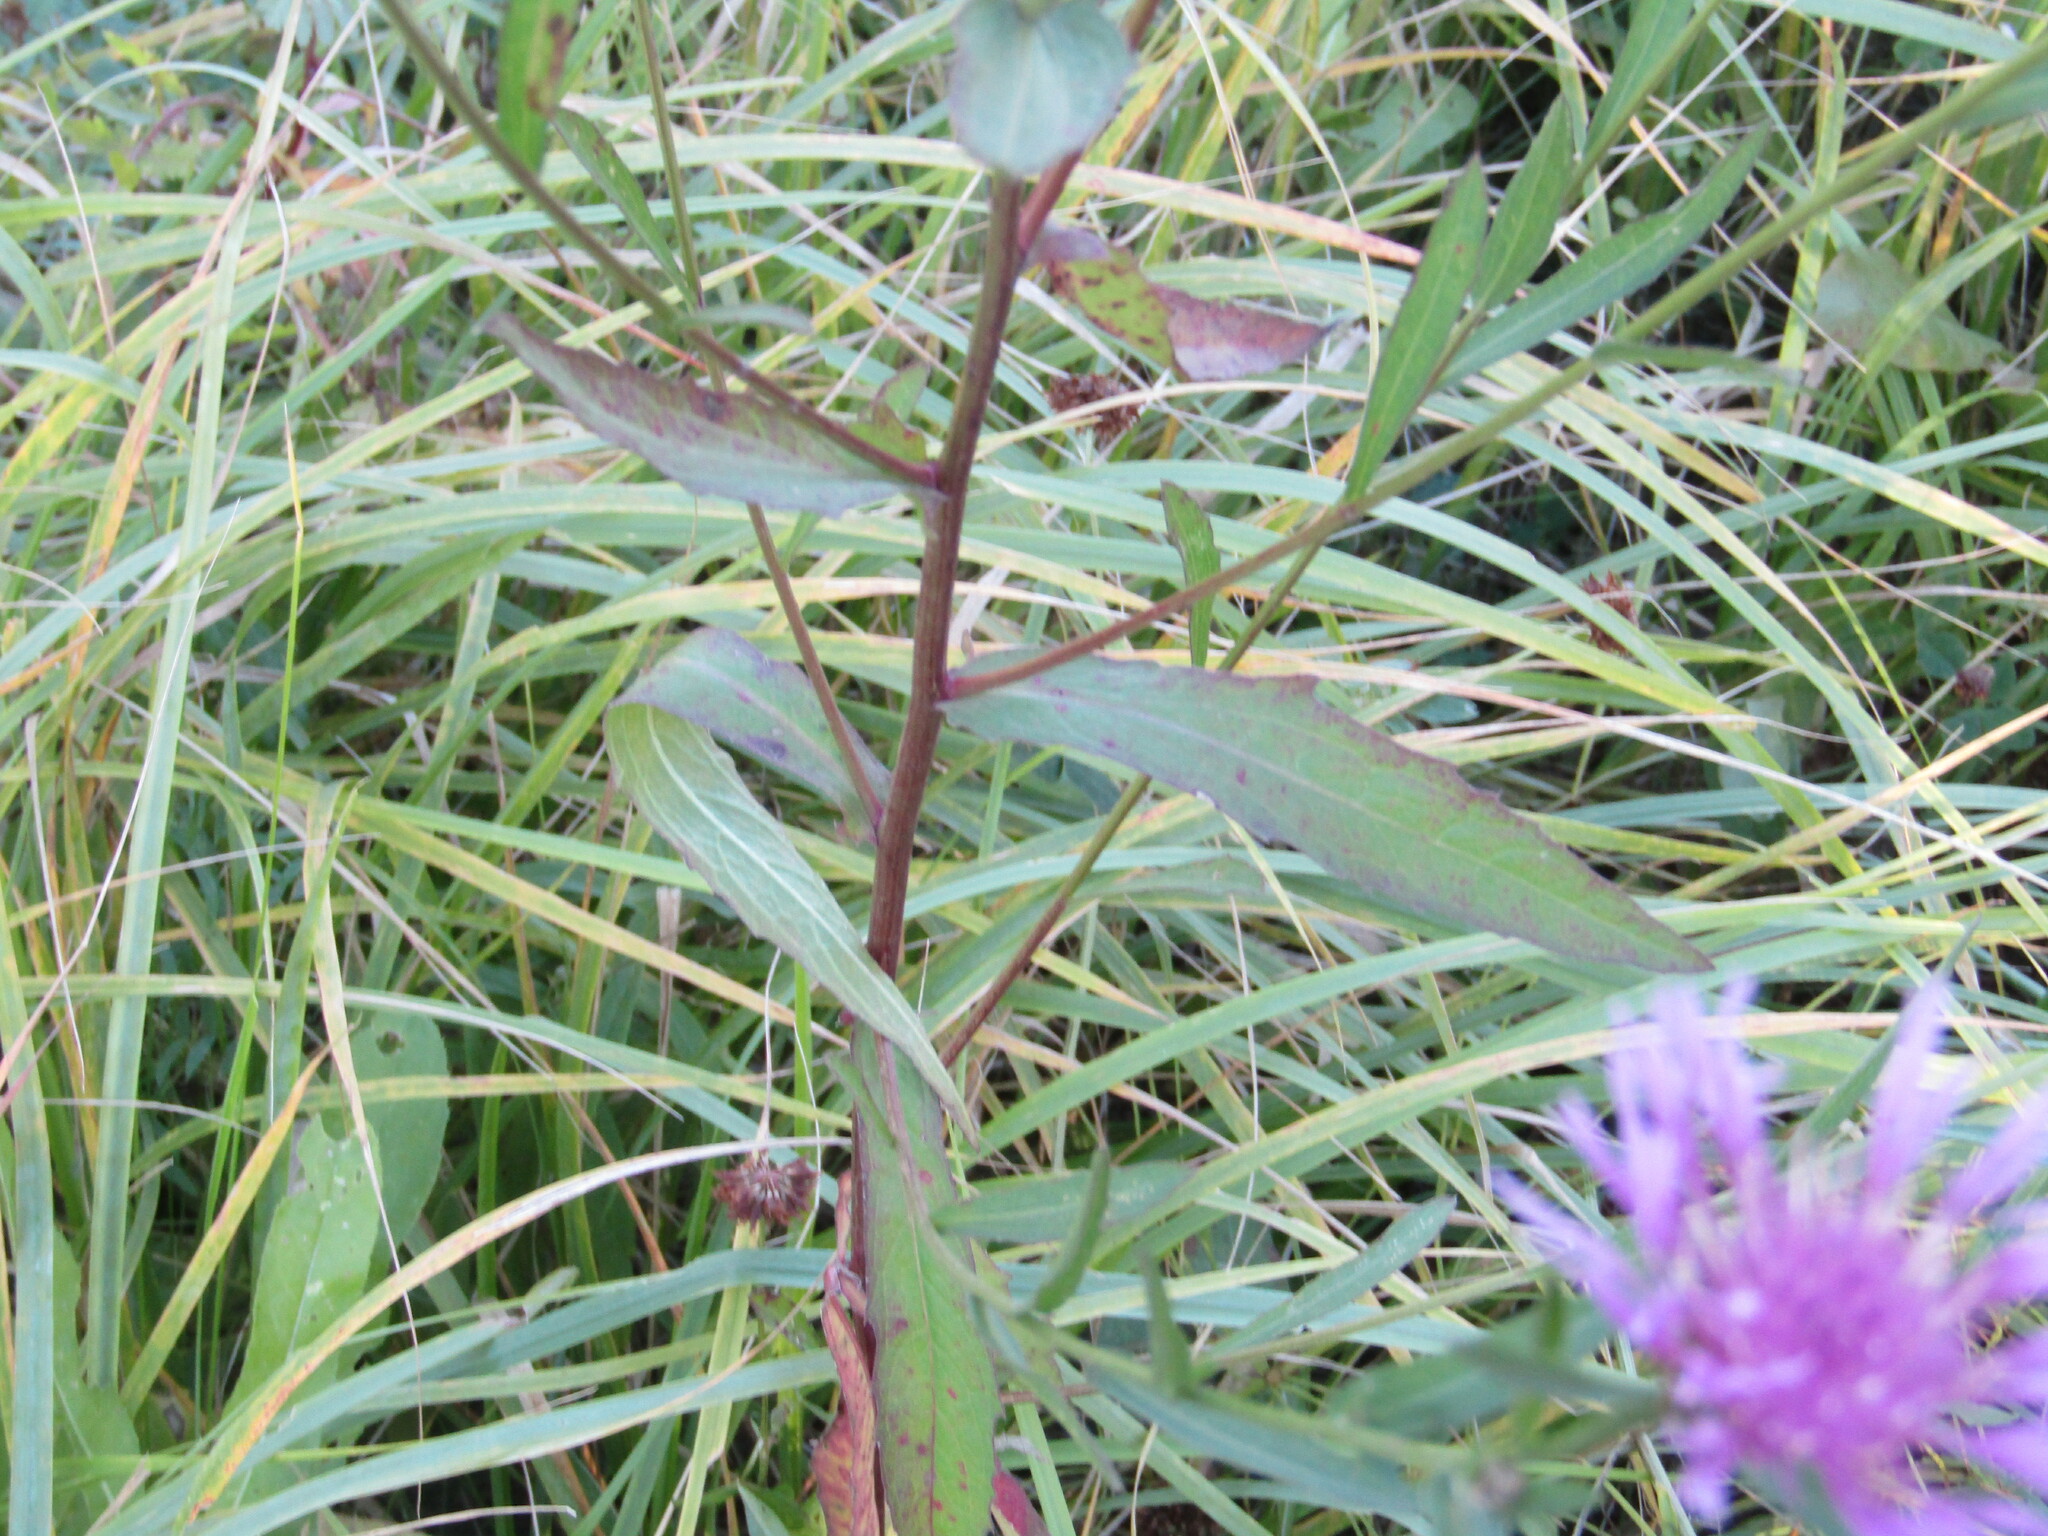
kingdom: Plantae
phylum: Tracheophyta
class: Magnoliopsida
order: Asterales
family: Asteraceae
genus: Centaurea
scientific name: Centaurea jacea
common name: Brown knapweed
